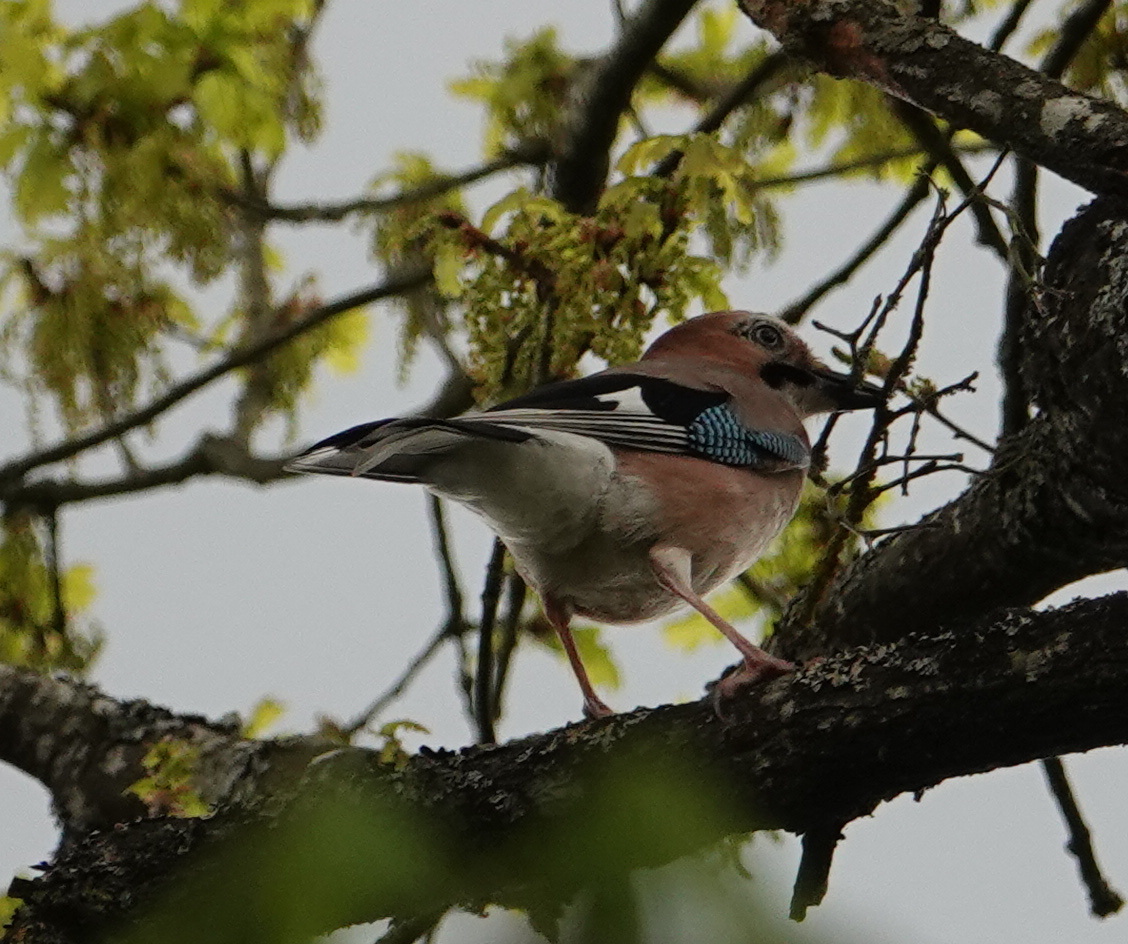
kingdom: Animalia
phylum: Chordata
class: Aves
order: Passeriformes
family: Corvidae
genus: Garrulus
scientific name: Garrulus glandarius
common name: Eurasian jay
